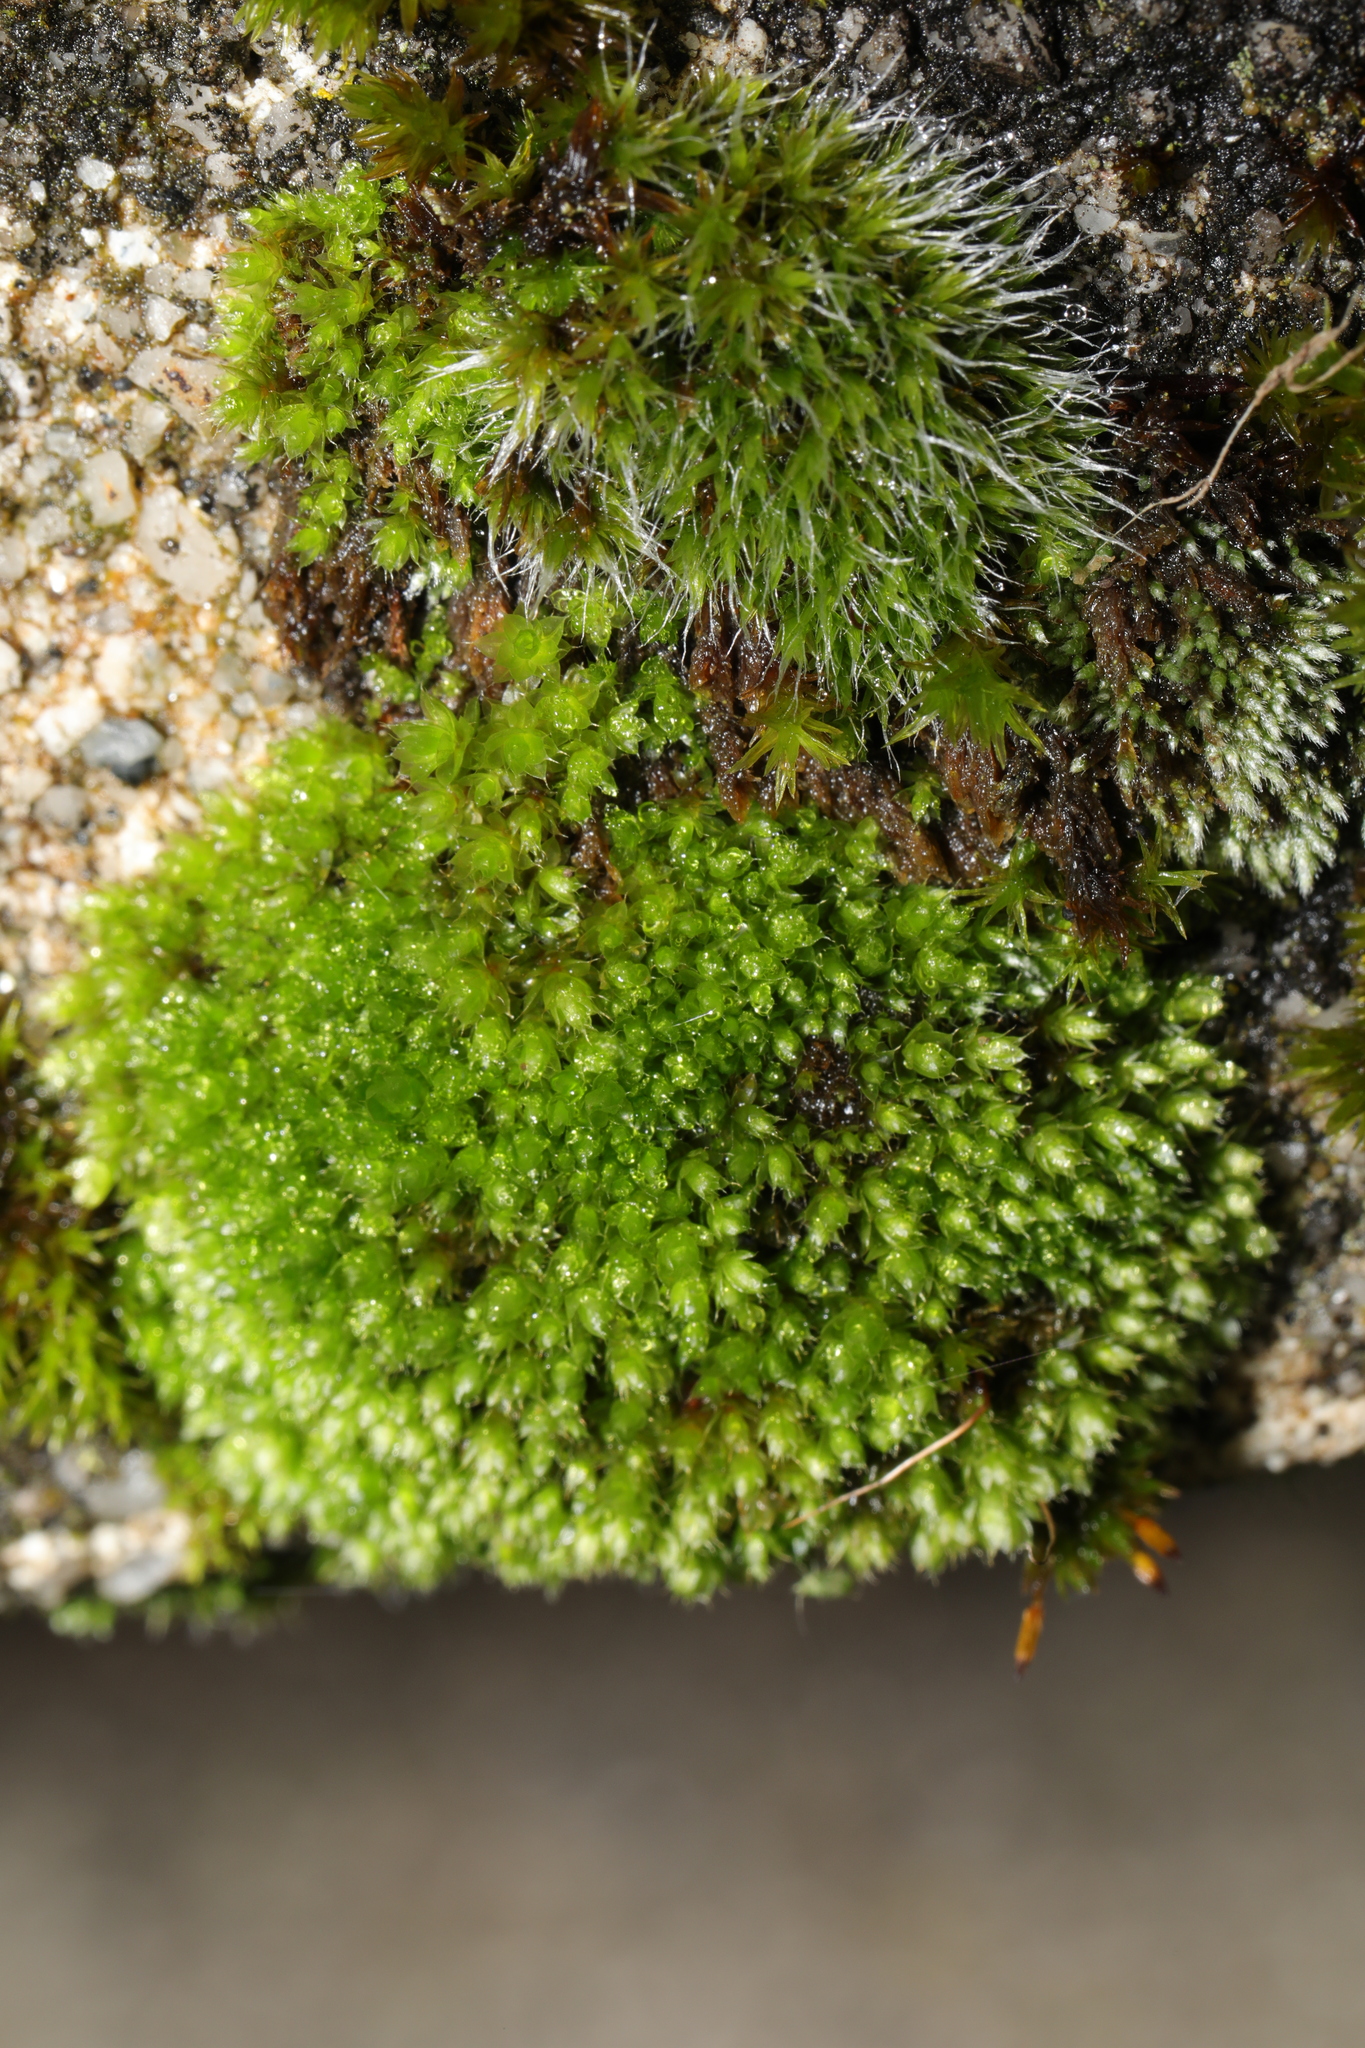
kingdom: Plantae
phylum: Bryophyta
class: Bryopsida
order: Bryales
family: Bryaceae
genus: Rosulabryum
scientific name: Rosulabryum capillare
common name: Capillary thread-moss
